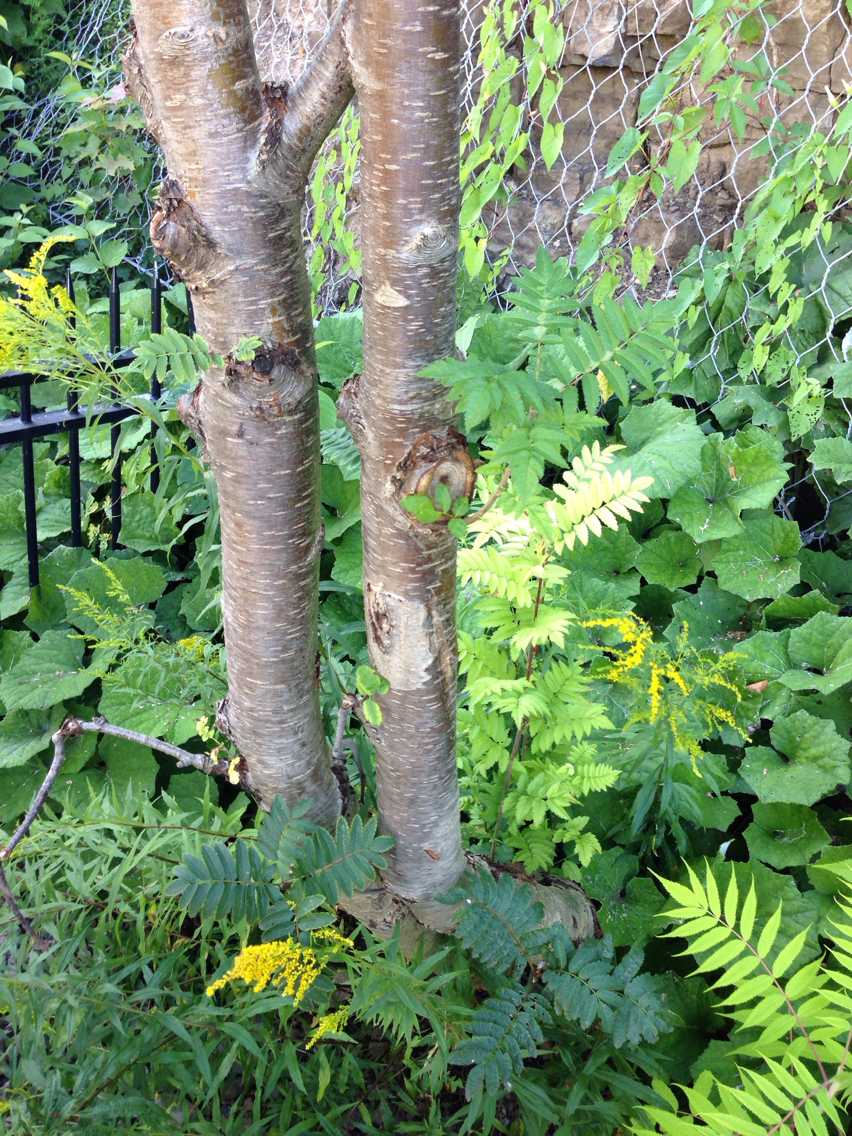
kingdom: Plantae
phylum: Tracheophyta
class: Magnoliopsida
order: Asterales
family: Asteraceae
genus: Tussilago
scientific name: Tussilago farfara
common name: Coltsfoot
